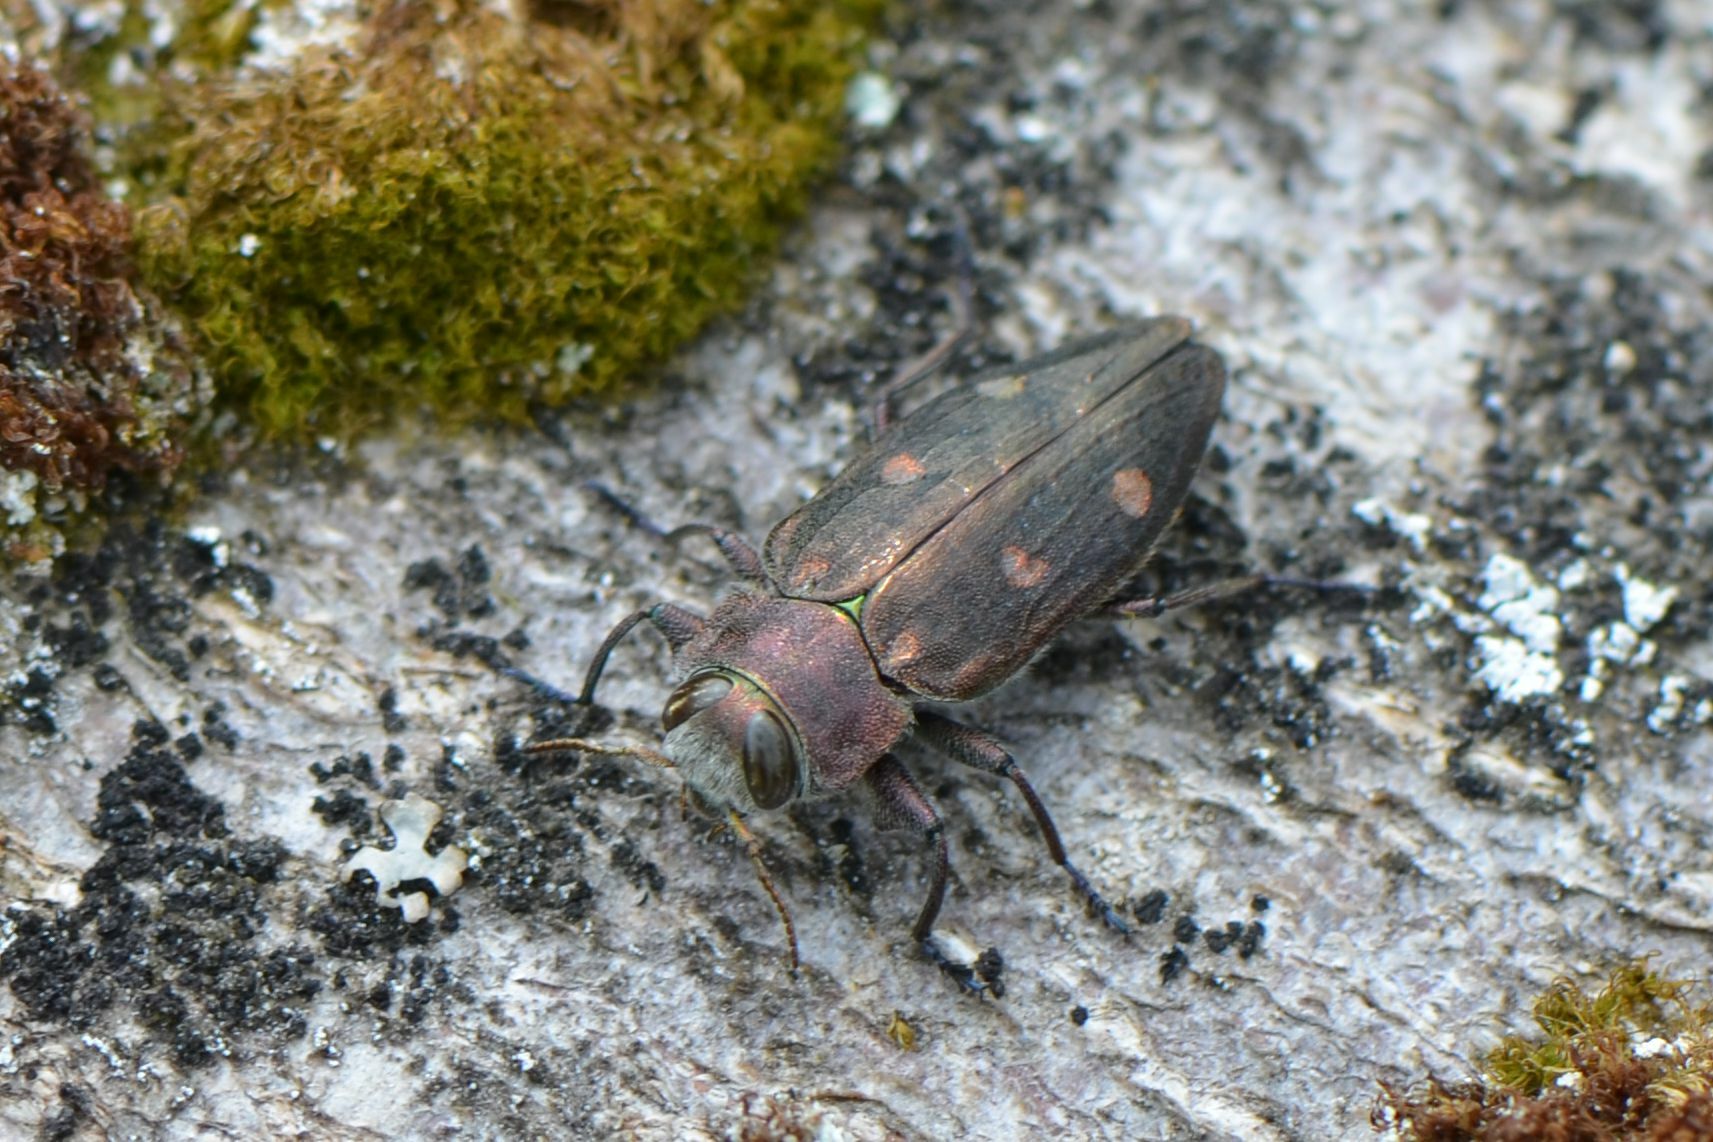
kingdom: Animalia
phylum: Arthropoda
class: Insecta
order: Coleoptera
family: Buprestidae
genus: Chrysobothris
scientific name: Chrysobothris affinis
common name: Beetle
